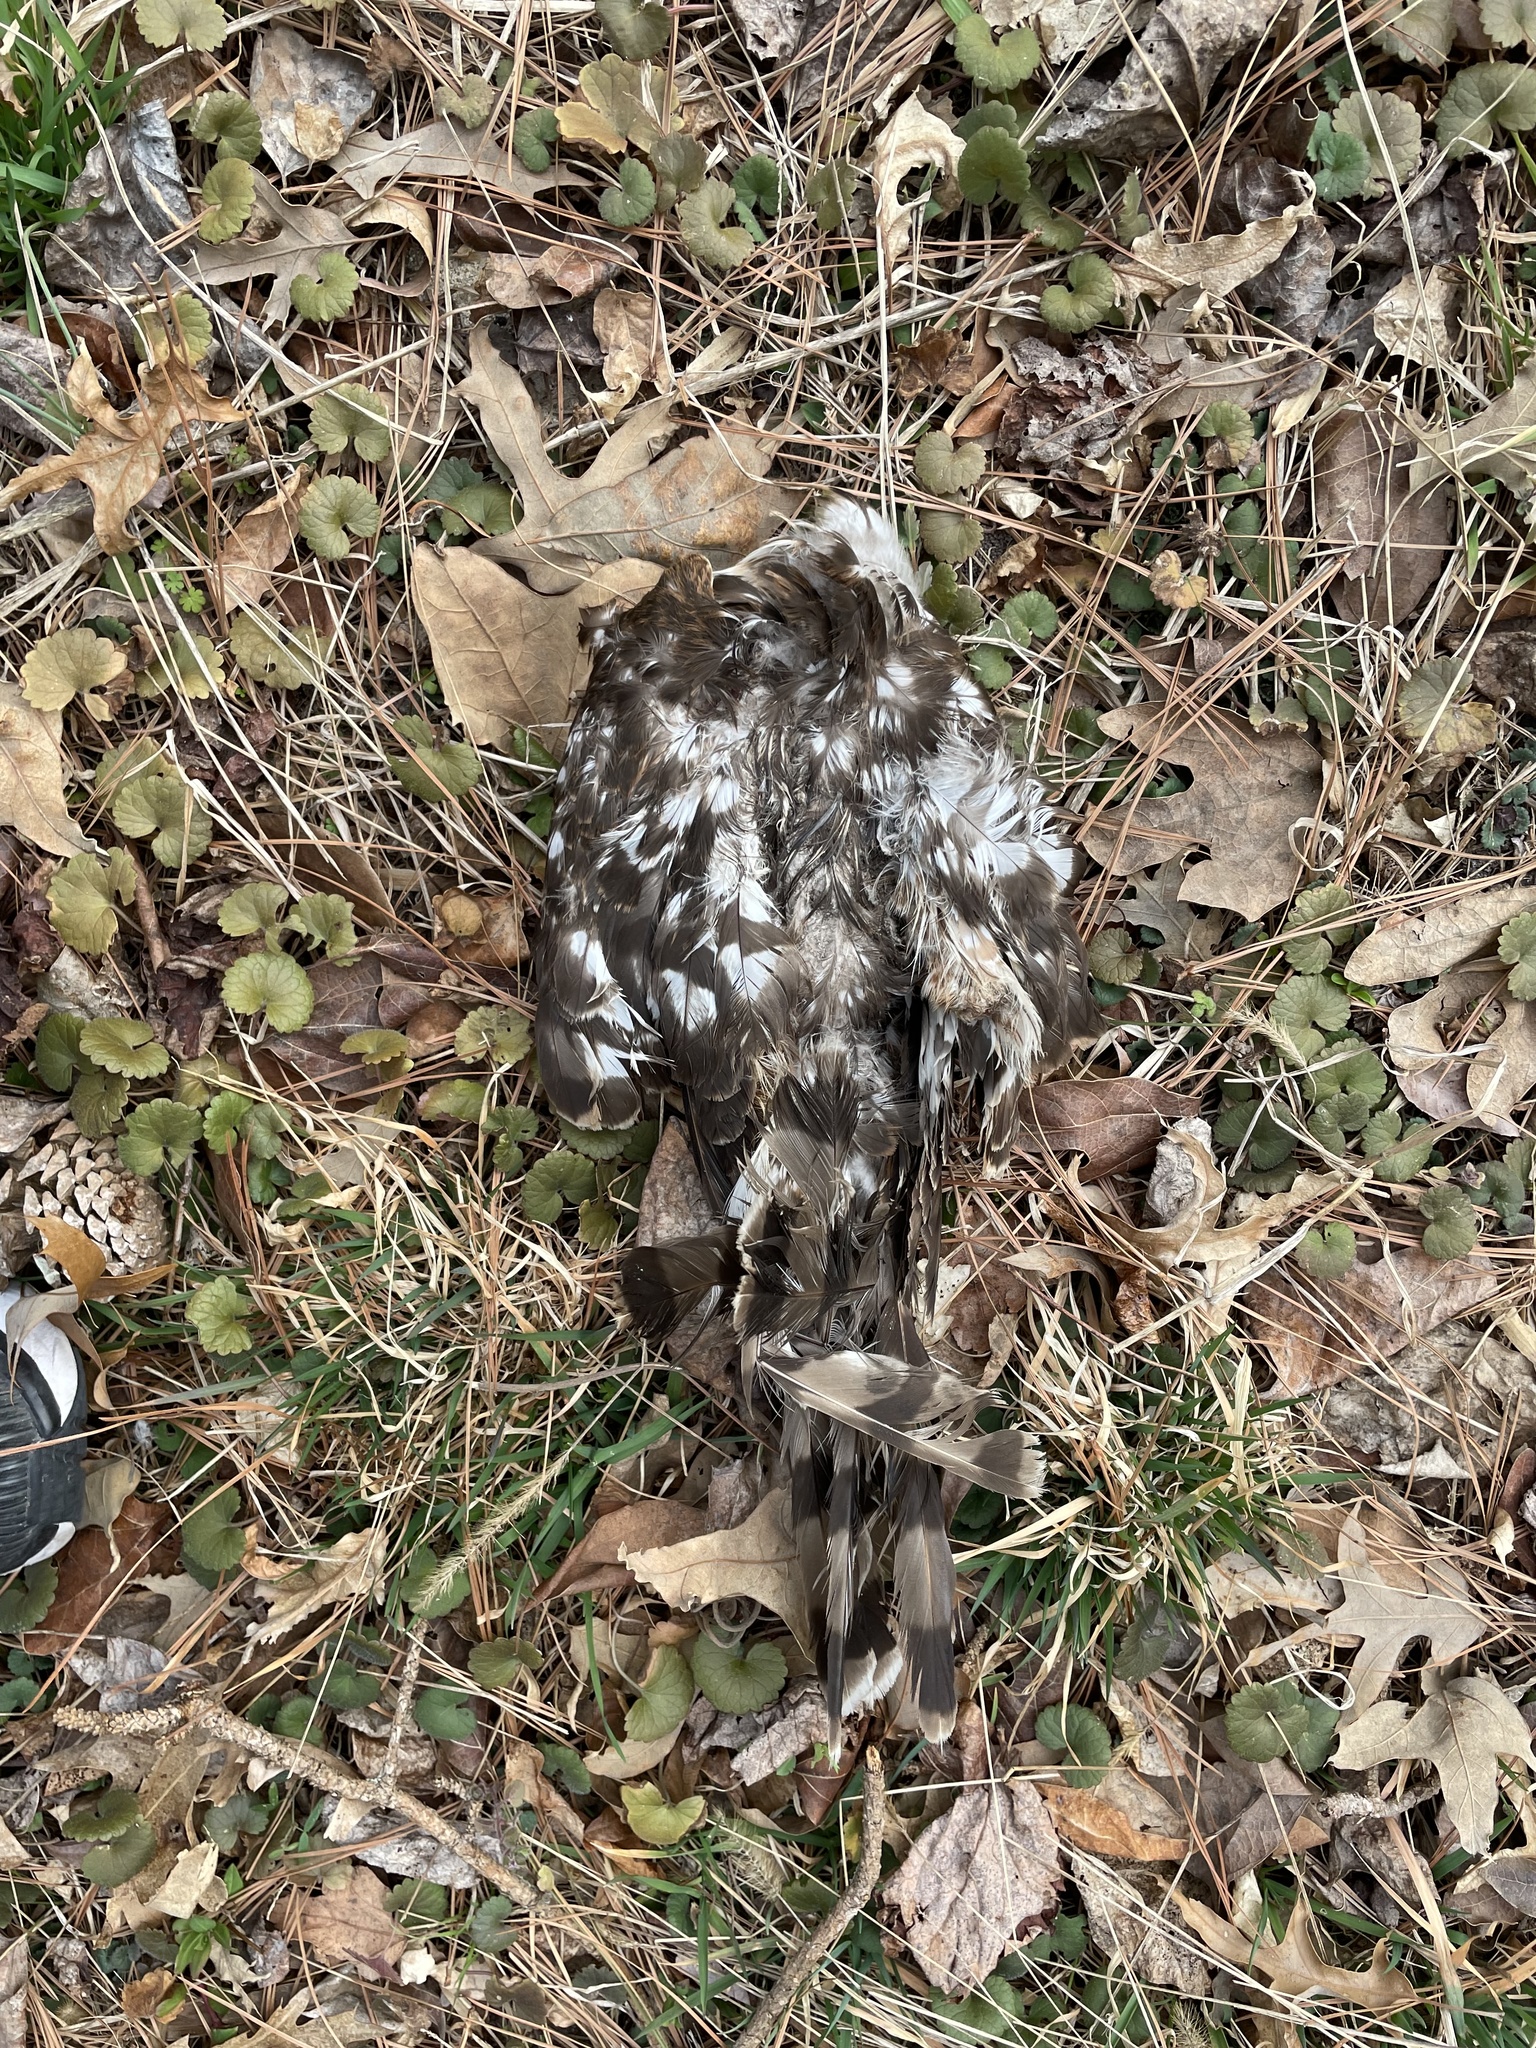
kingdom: Animalia
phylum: Chordata
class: Aves
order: Accipitriformes
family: Accipitridae
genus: Accipiter
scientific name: Accipiter cooperii
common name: Cooper's hawk
